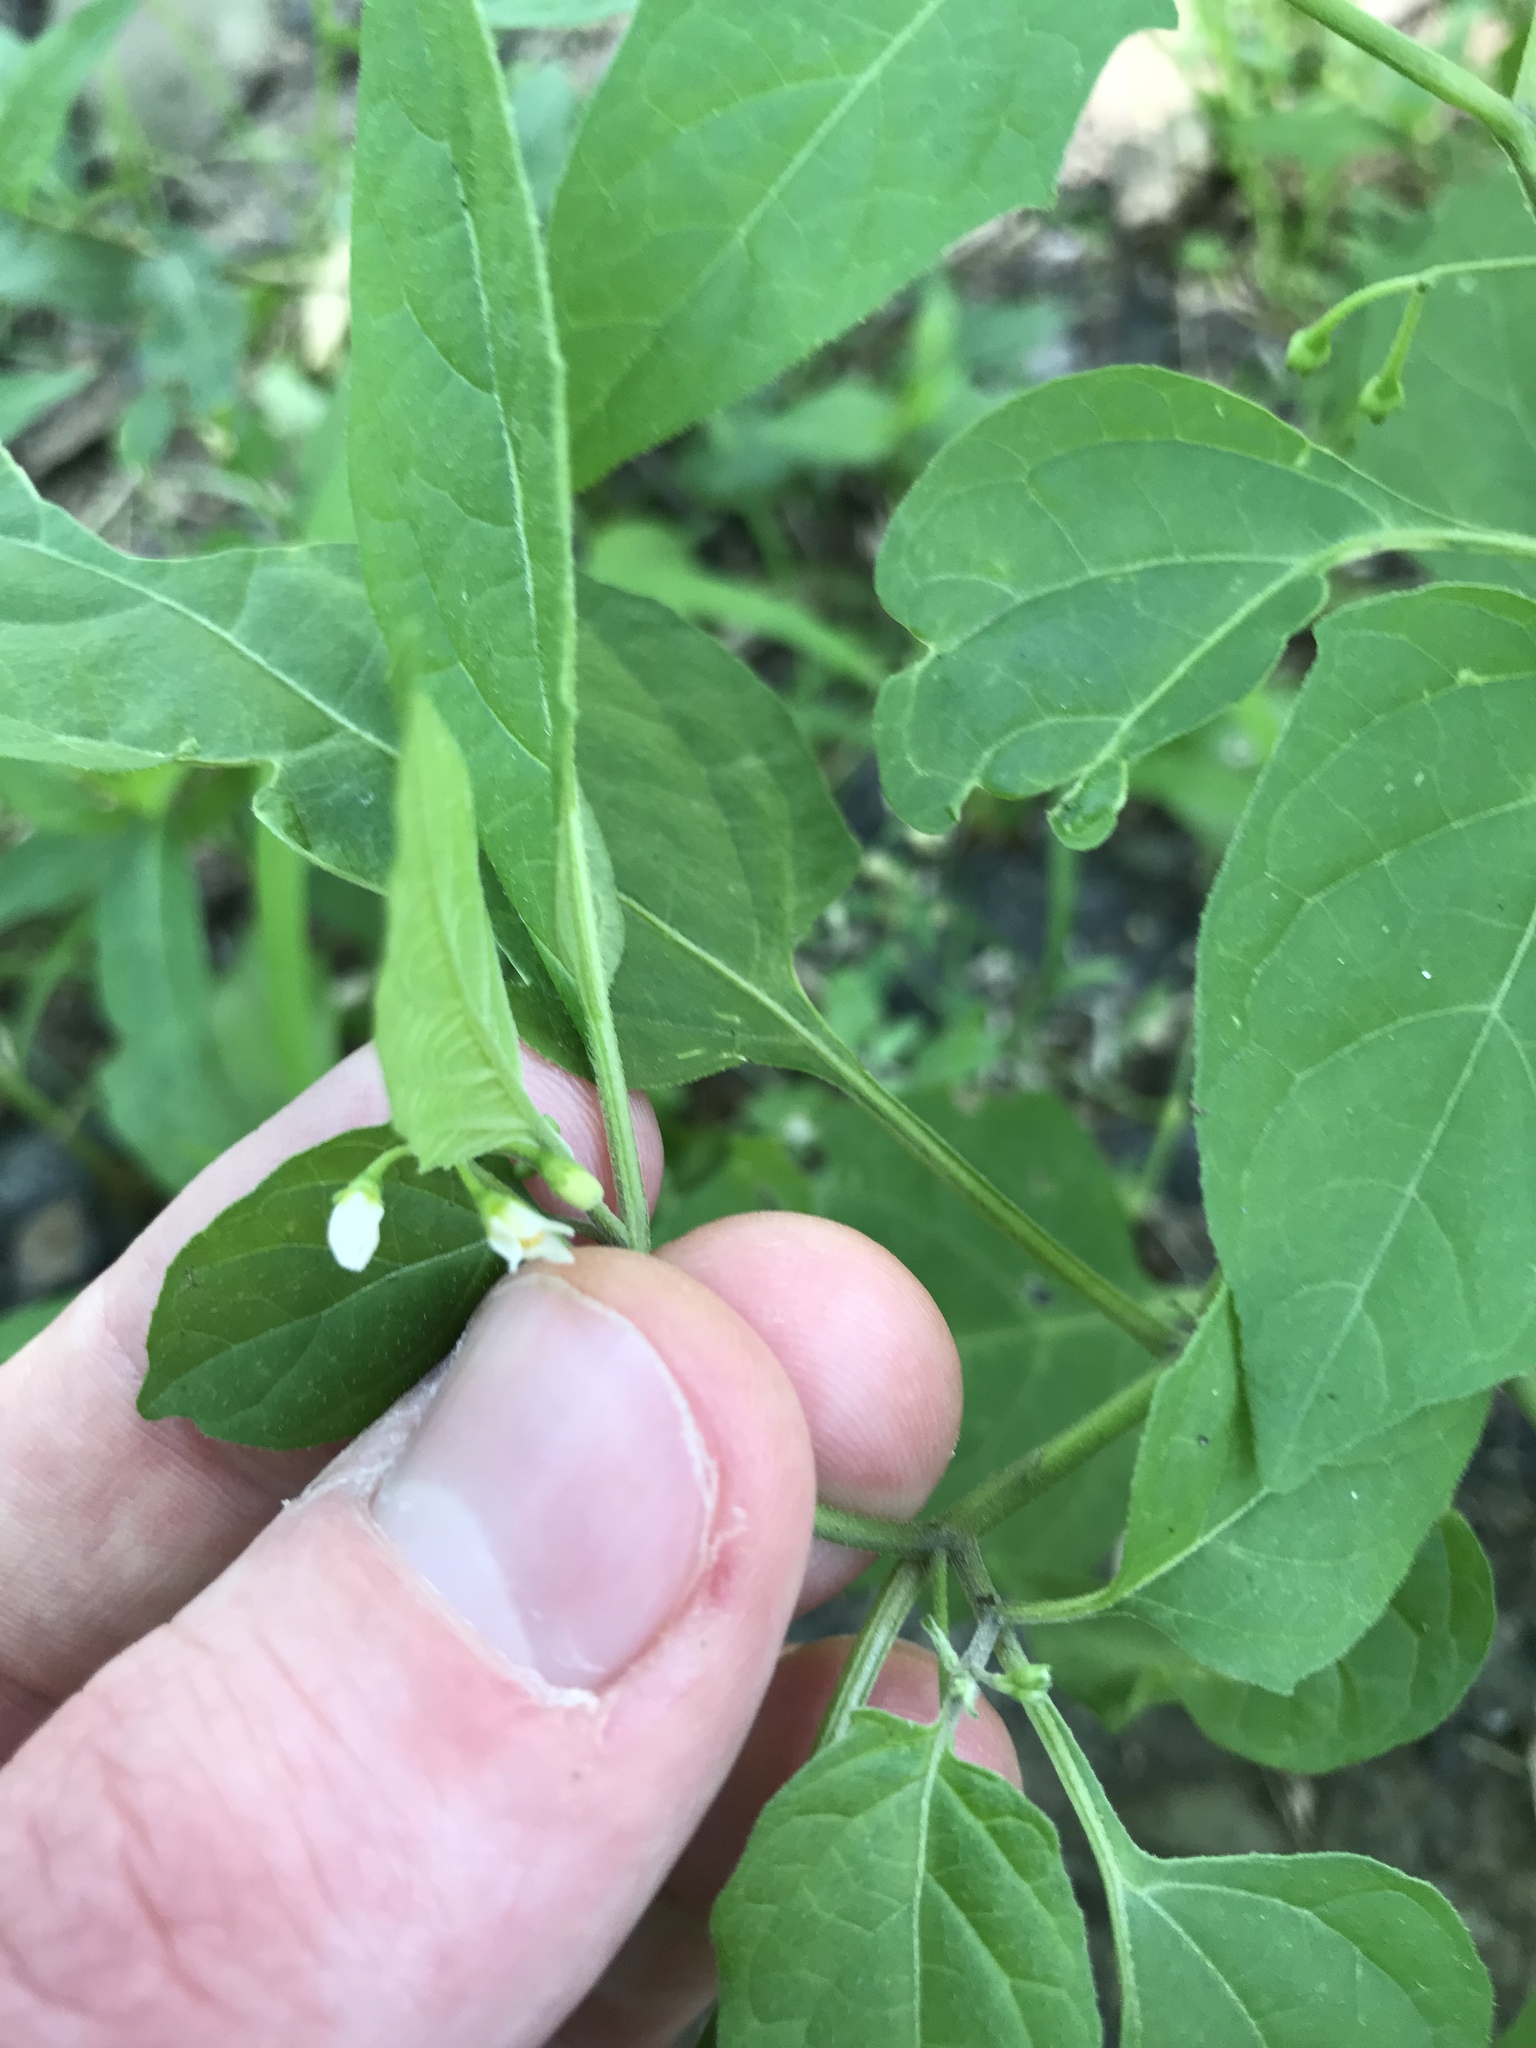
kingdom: Plantae
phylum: Tracheophyta
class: Magnoliopsida
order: Solanales
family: Solanaceae
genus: Solanum
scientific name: Solanum emulans
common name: Eastern black nightshade
